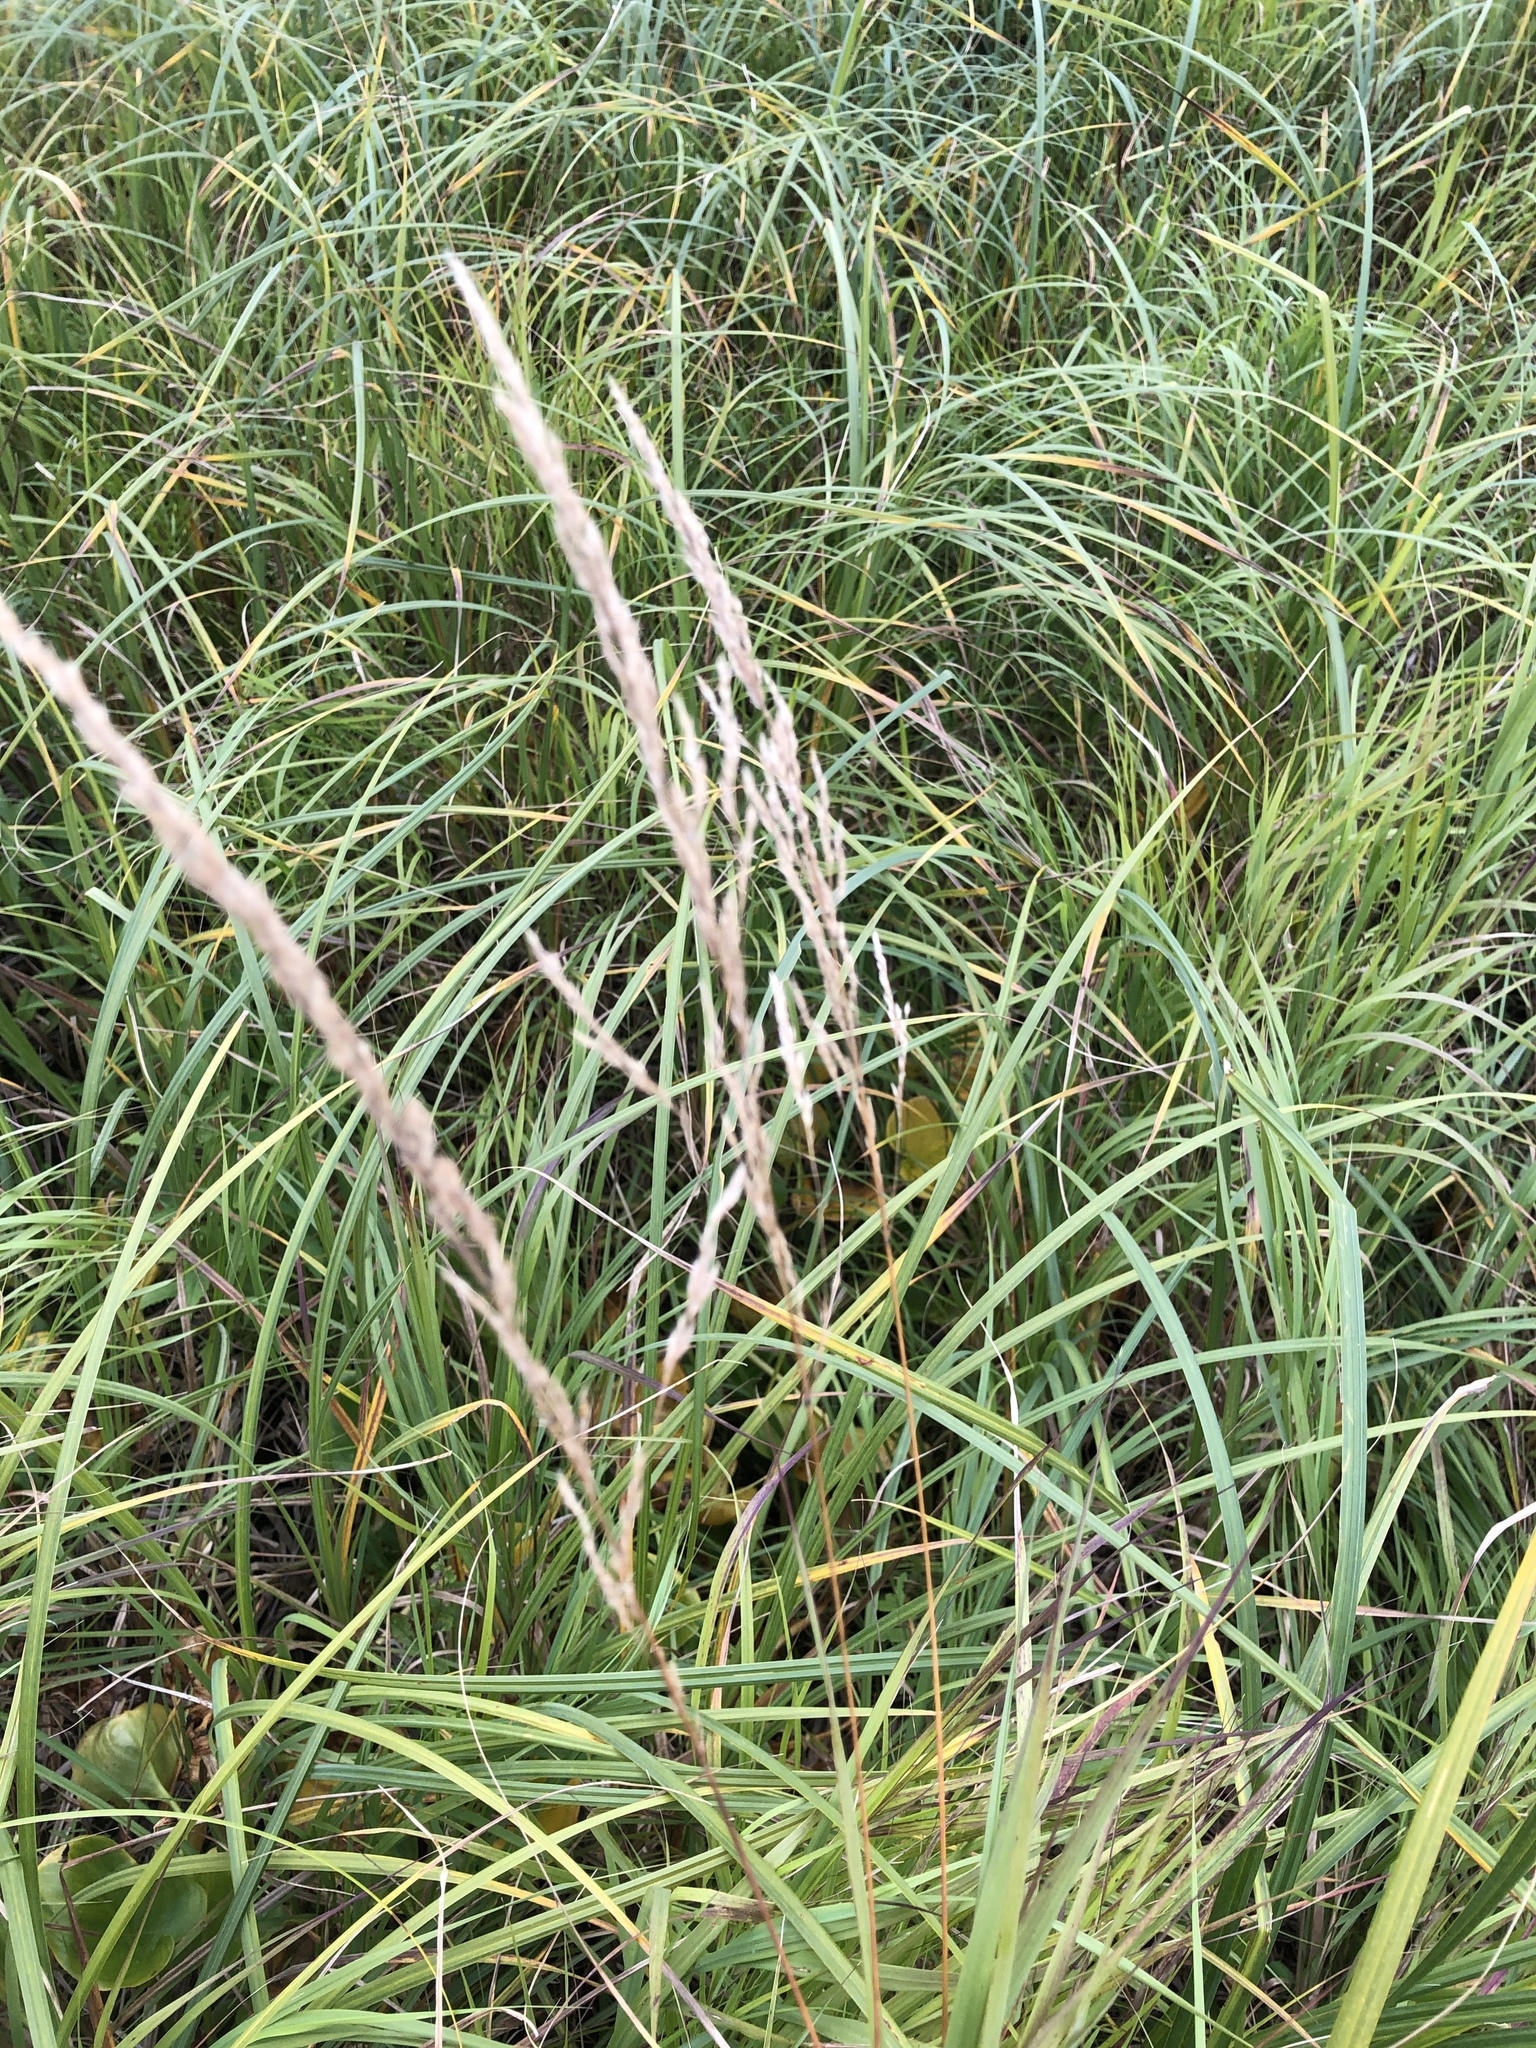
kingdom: Plantae
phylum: Tracheophyta
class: Liliopsida
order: Poales
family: Poaceae
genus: Calamagrostis
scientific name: Calamagrostis canadensis
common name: Canada bluejoint
